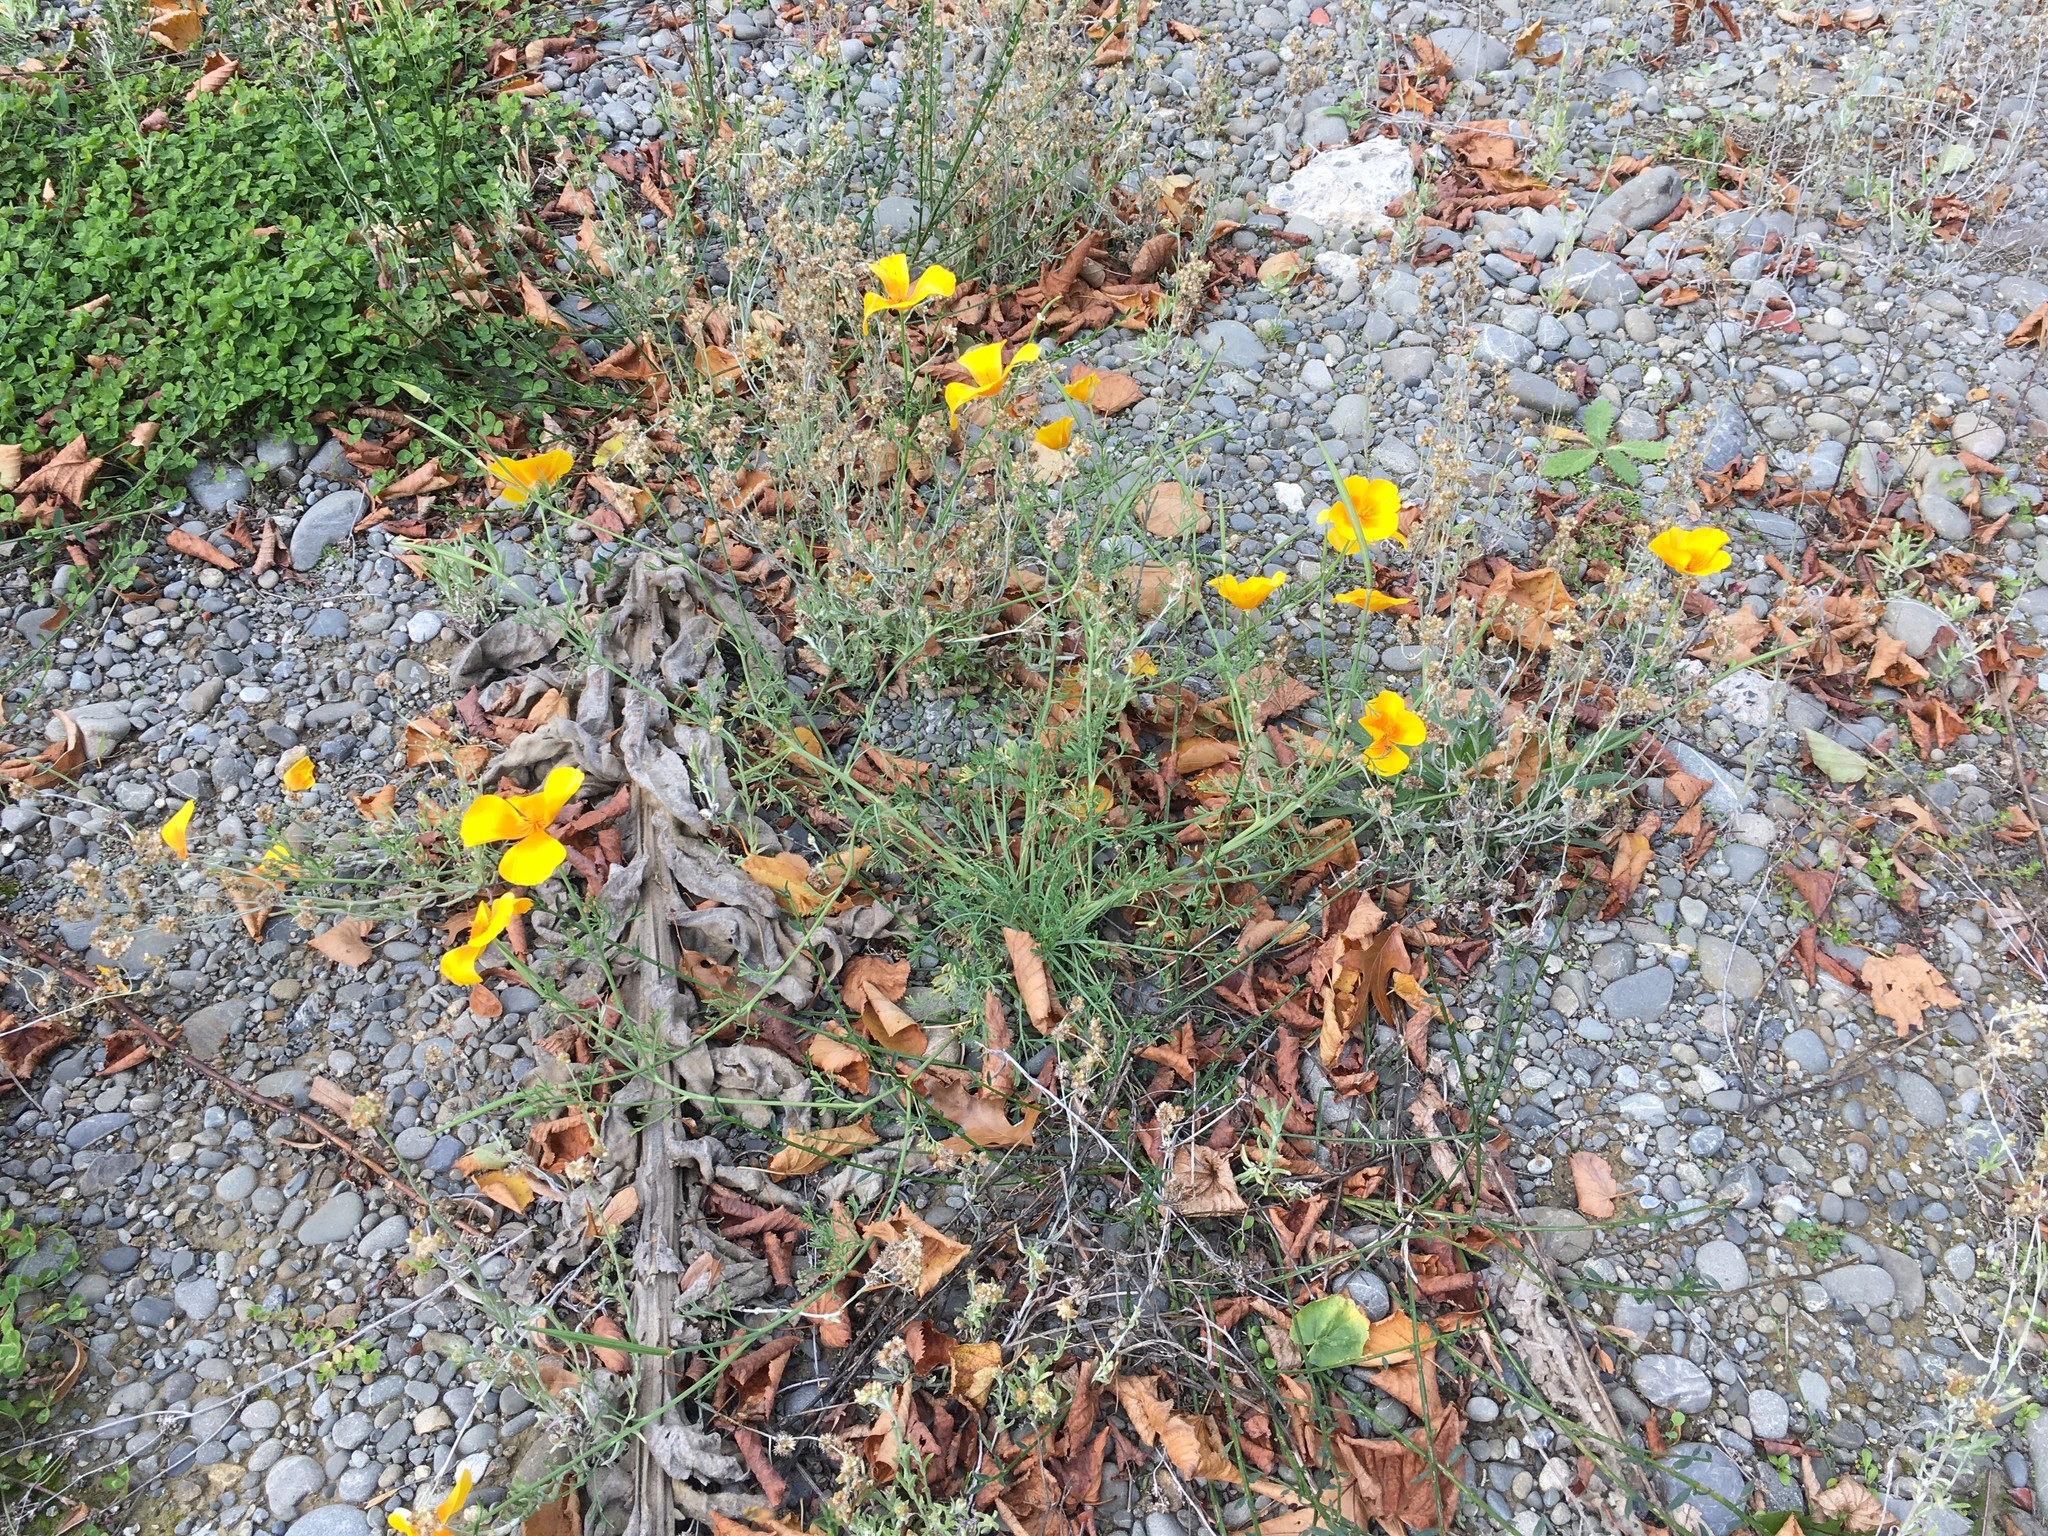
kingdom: Plantae
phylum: Tracheophyta
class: Magnoliopsida
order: Ranunculales
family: Papaveraceae
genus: Eschscholzia
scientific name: Eschscholzia californica
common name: California poppy
